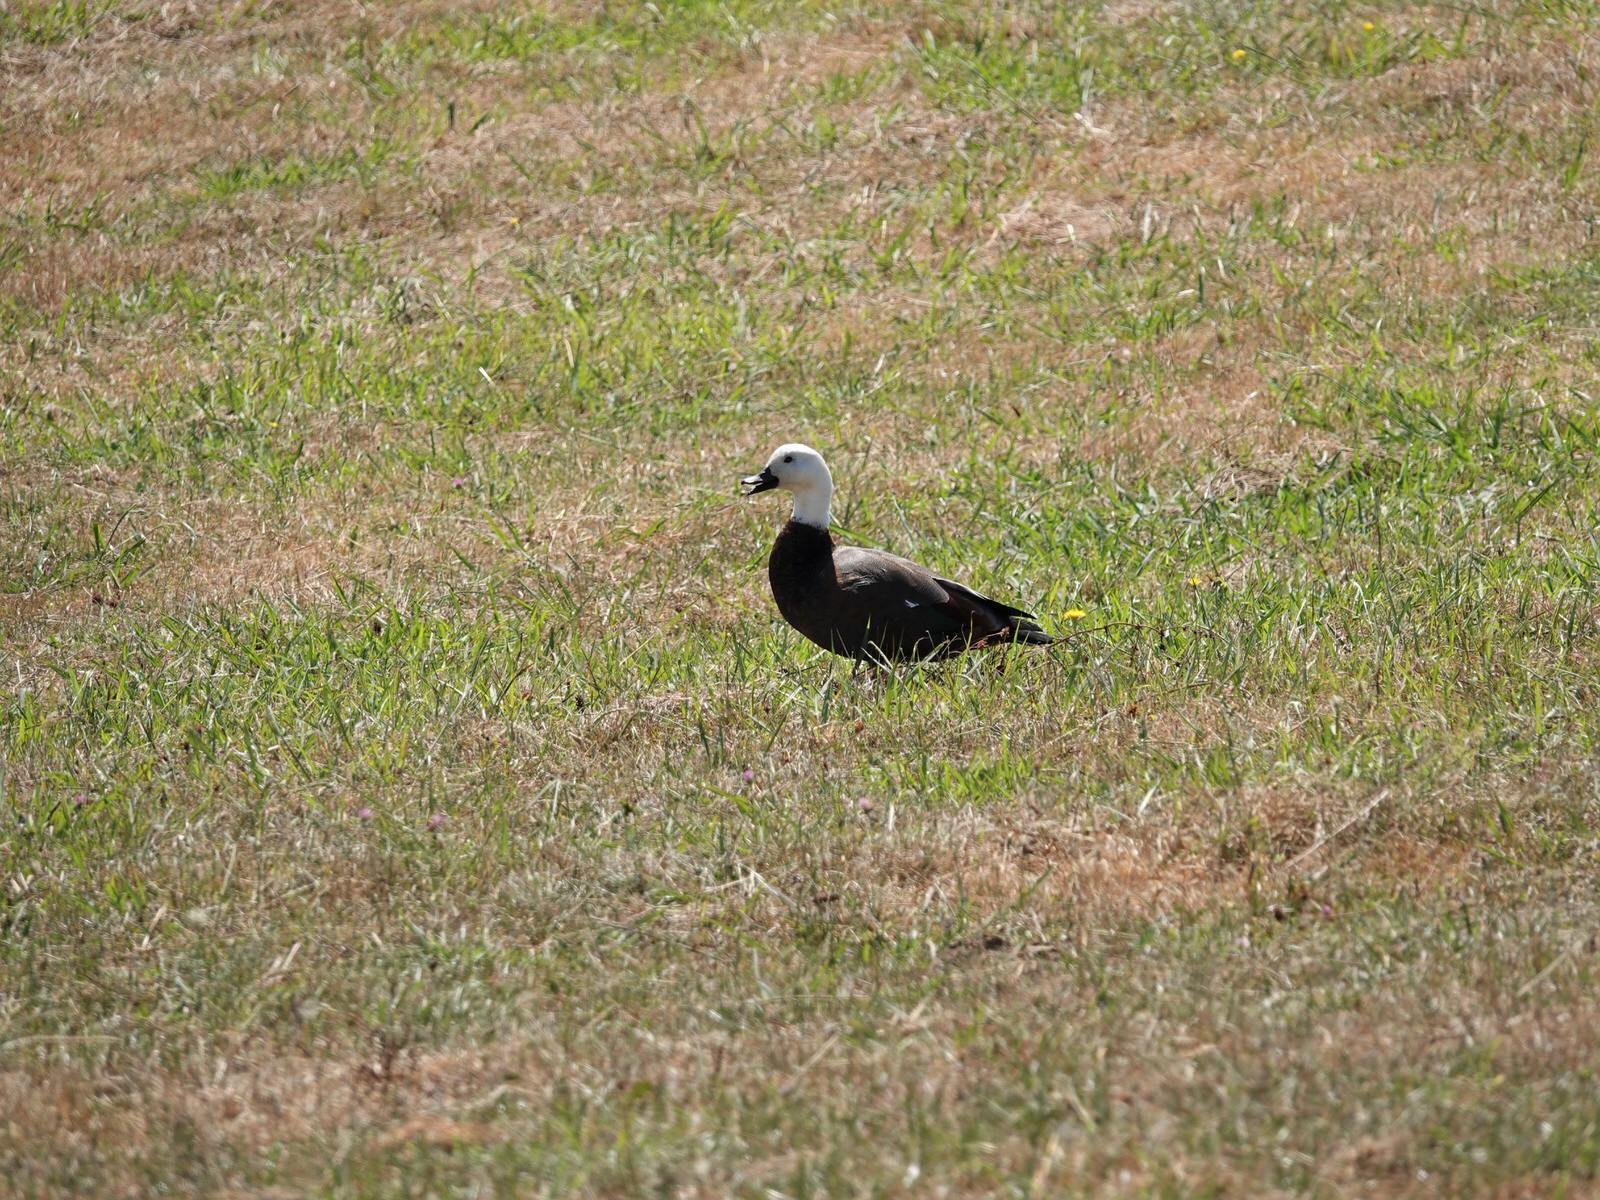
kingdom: Animalia
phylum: Chordata
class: Aves
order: Anseriformes
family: Anatidae
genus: Tadorna
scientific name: Tadorna variegata
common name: Paradise shelduck
